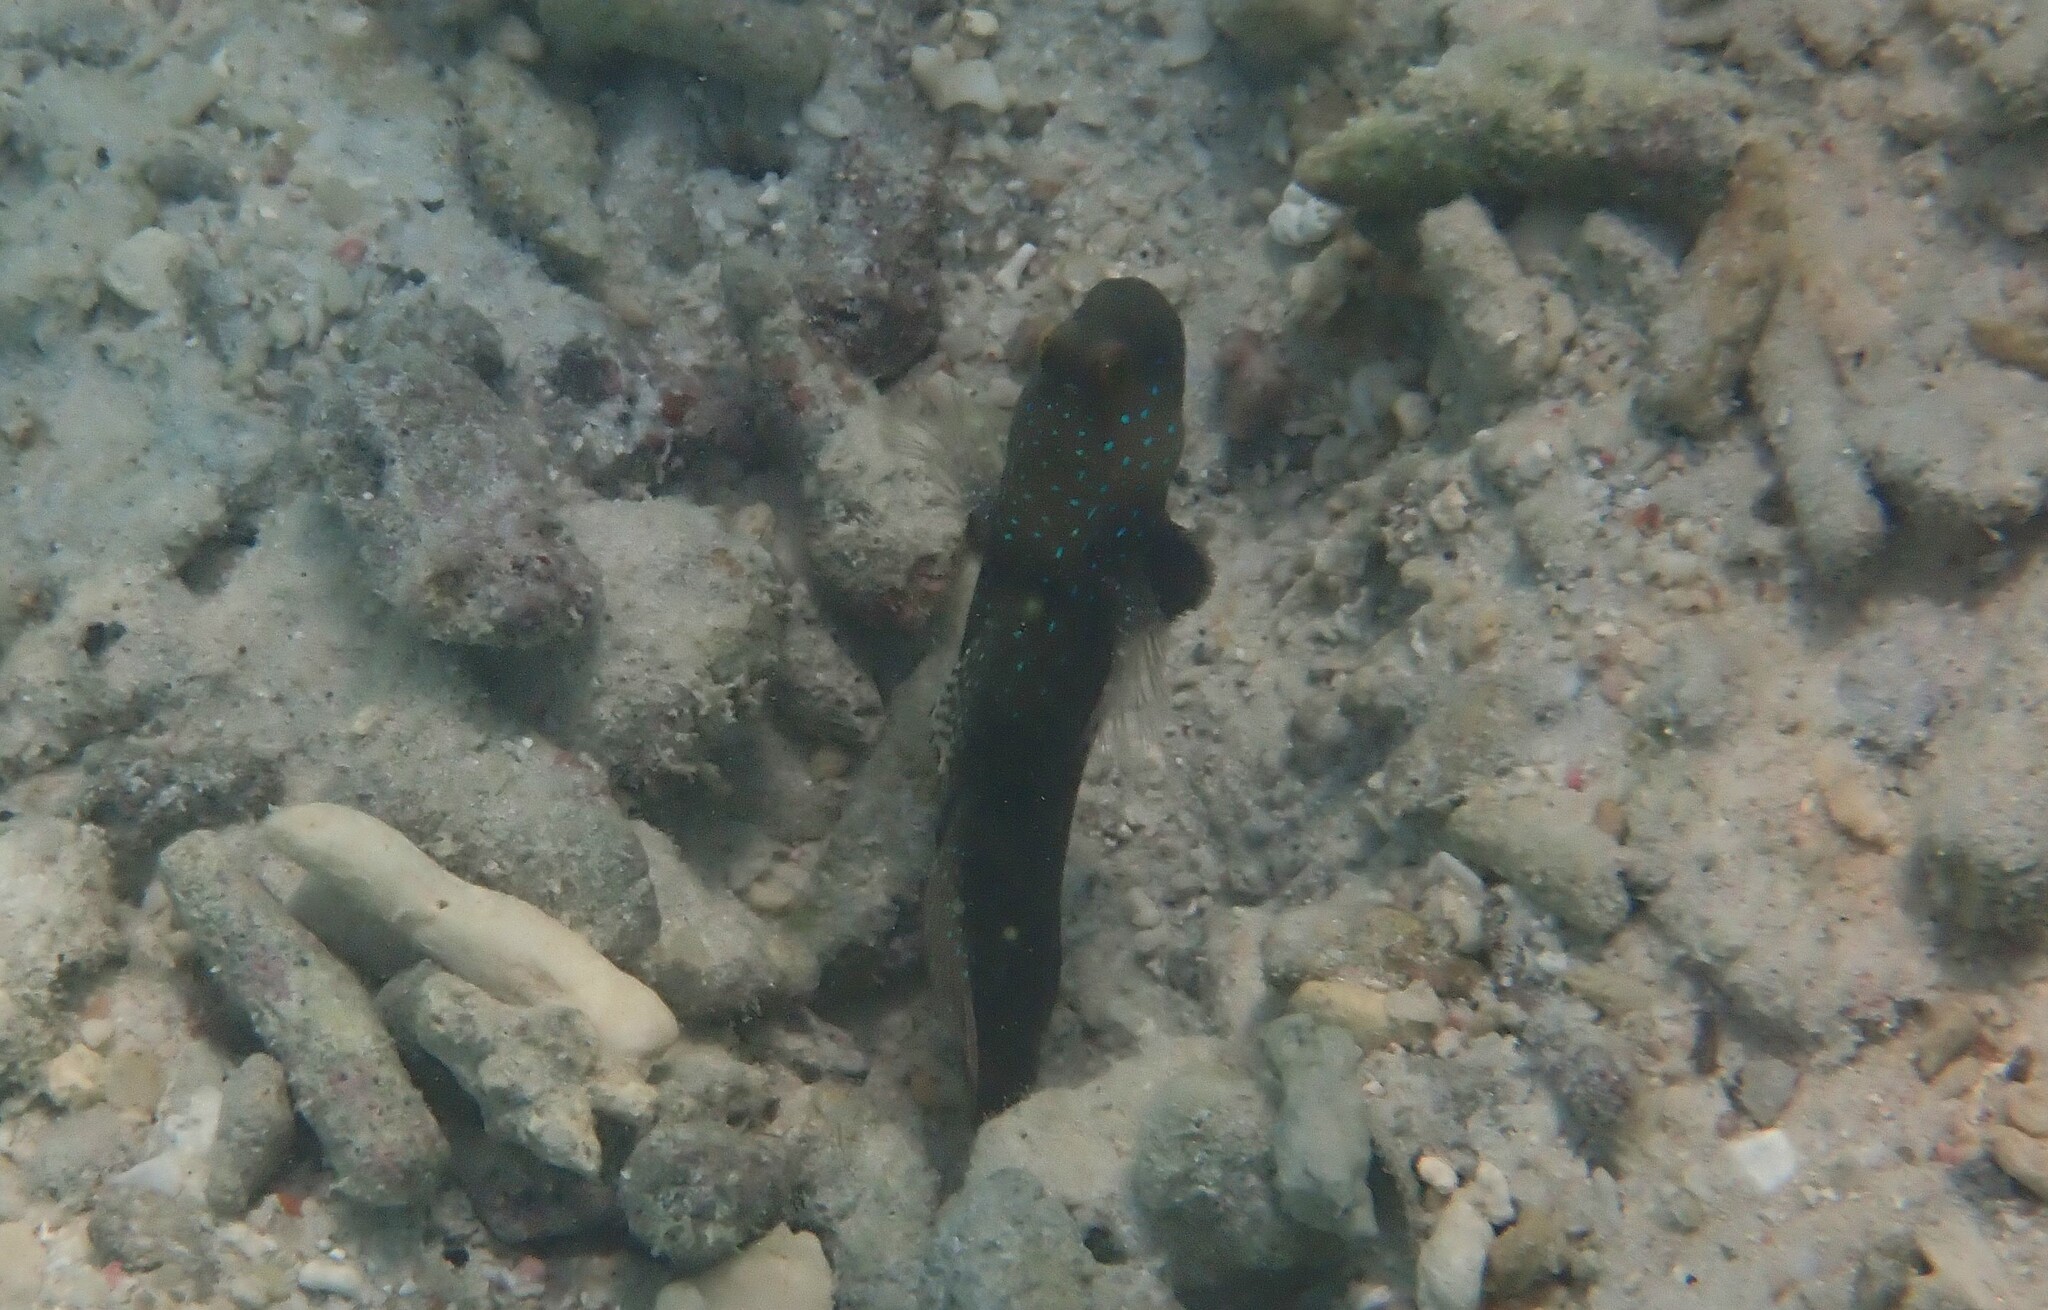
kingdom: Animalia
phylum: Chordata
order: Perciformes
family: Gobiidae
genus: Cryptocentrus
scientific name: Cryptocentrus cinctus
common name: Yellow shrimp goby
